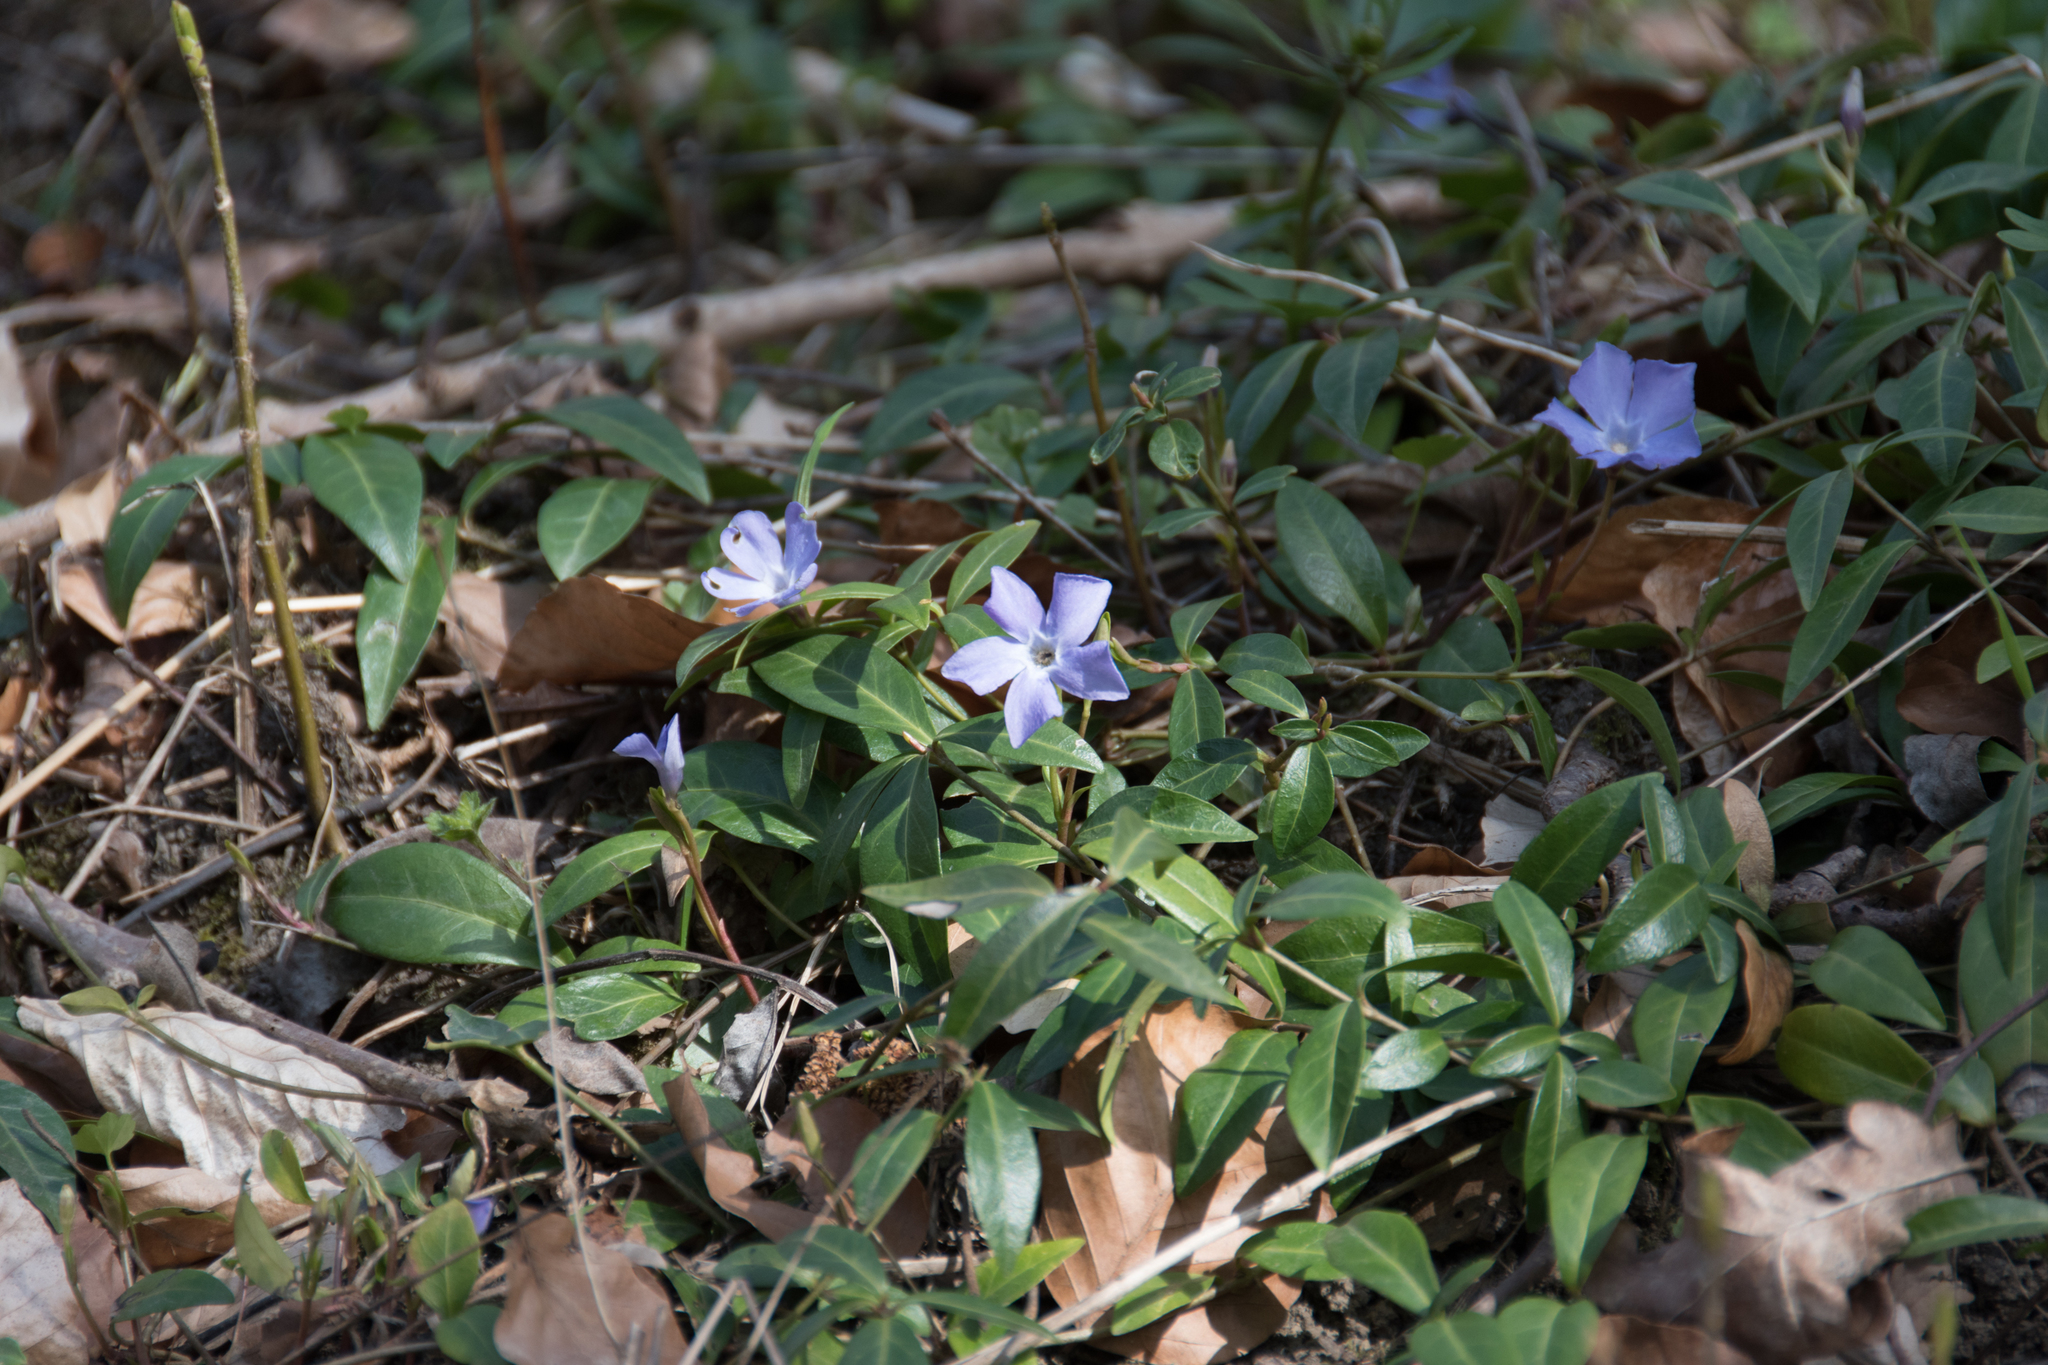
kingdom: Plantae
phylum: Tracheophyta
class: Magnoliopsida
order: Gentianales
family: Apocynaceae
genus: Vinca
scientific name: Vinca minor
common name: Lesser periwinkle
